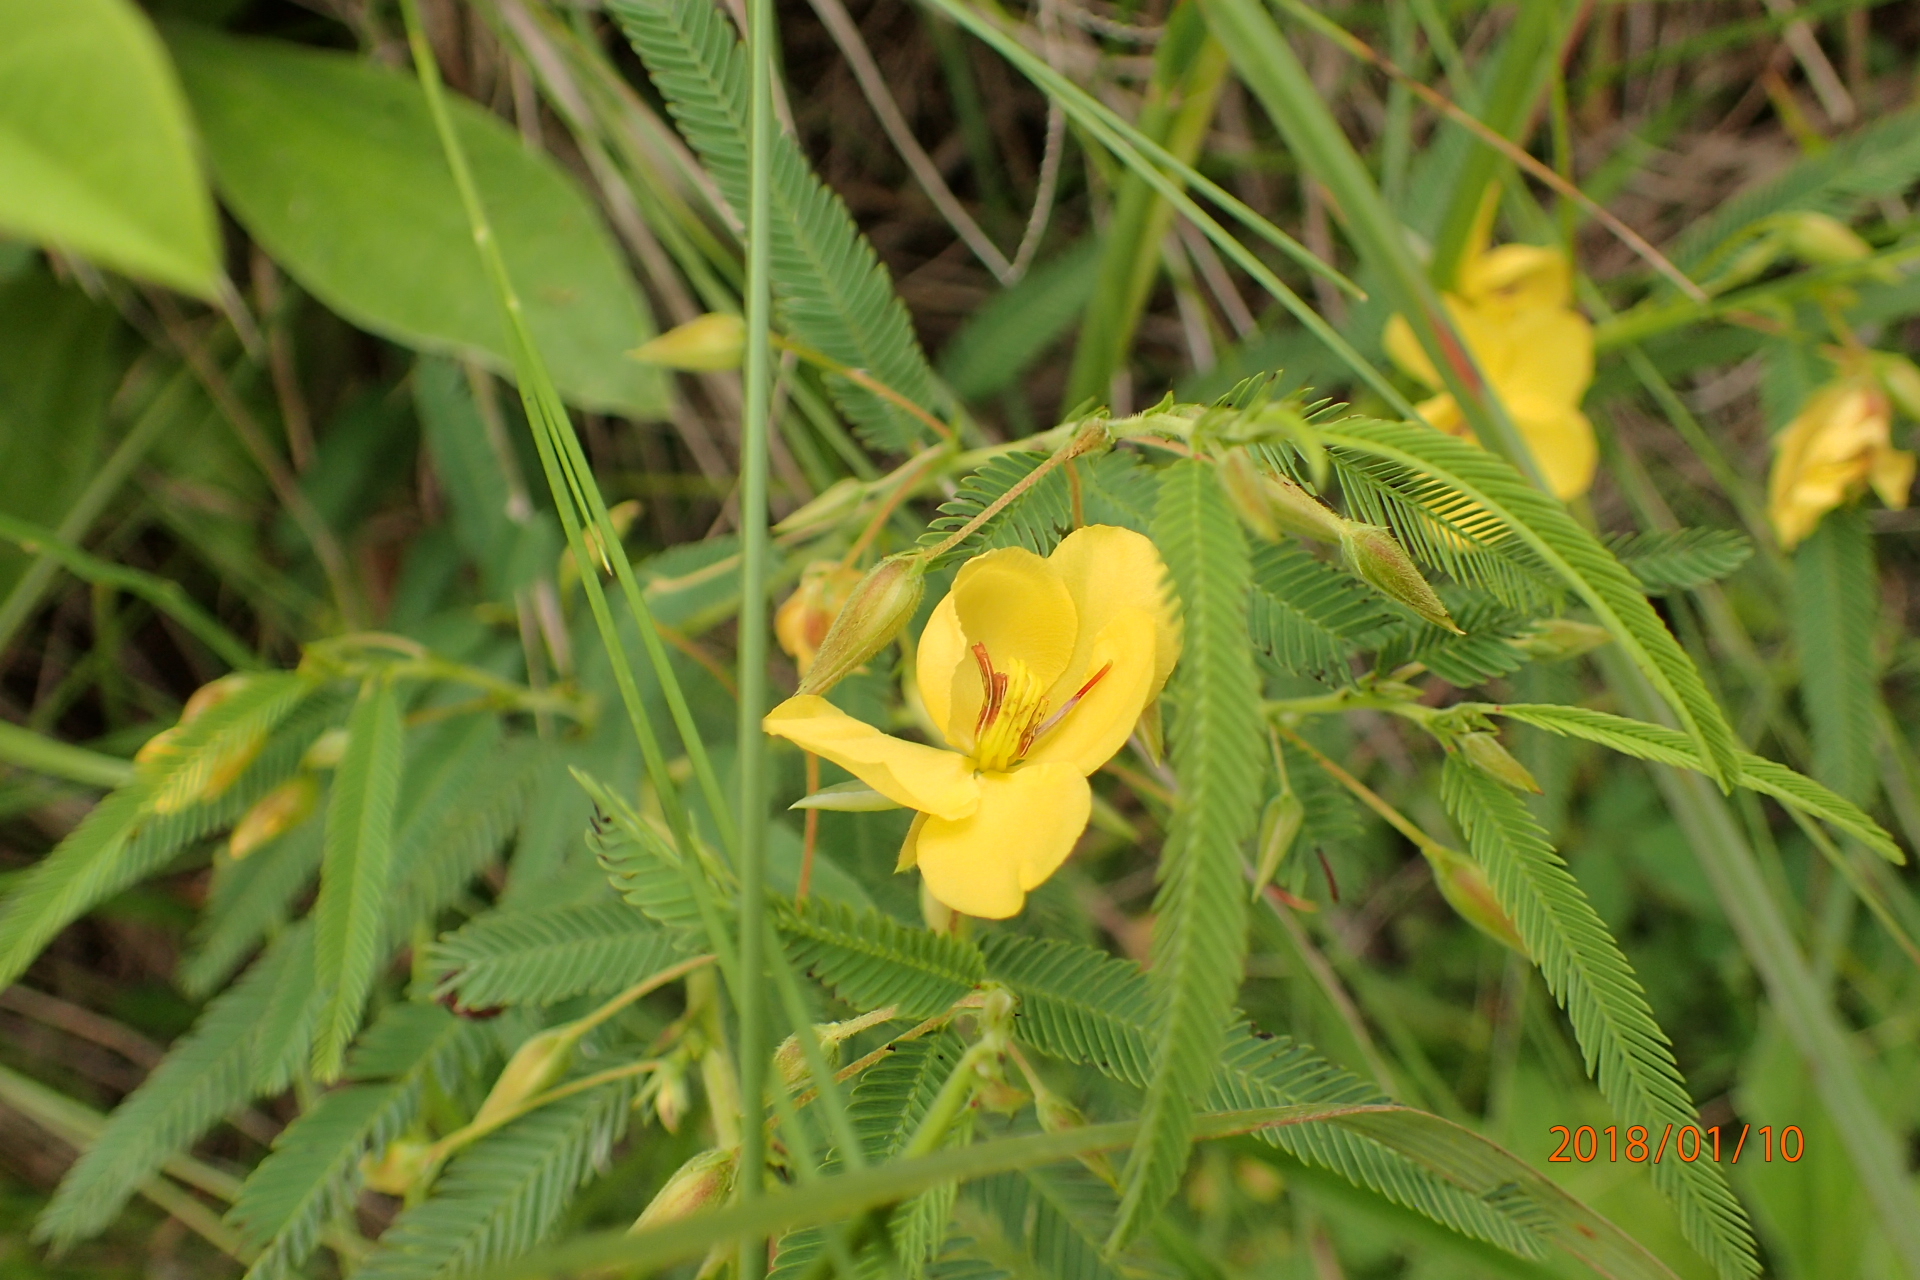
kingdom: Plantae
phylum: Tracheophyta
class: Magnoliopsida
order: Fabales
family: Fabaceae
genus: Chamaecrista
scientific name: Chamaecrista mimosoides
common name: Fish-bone cassia
